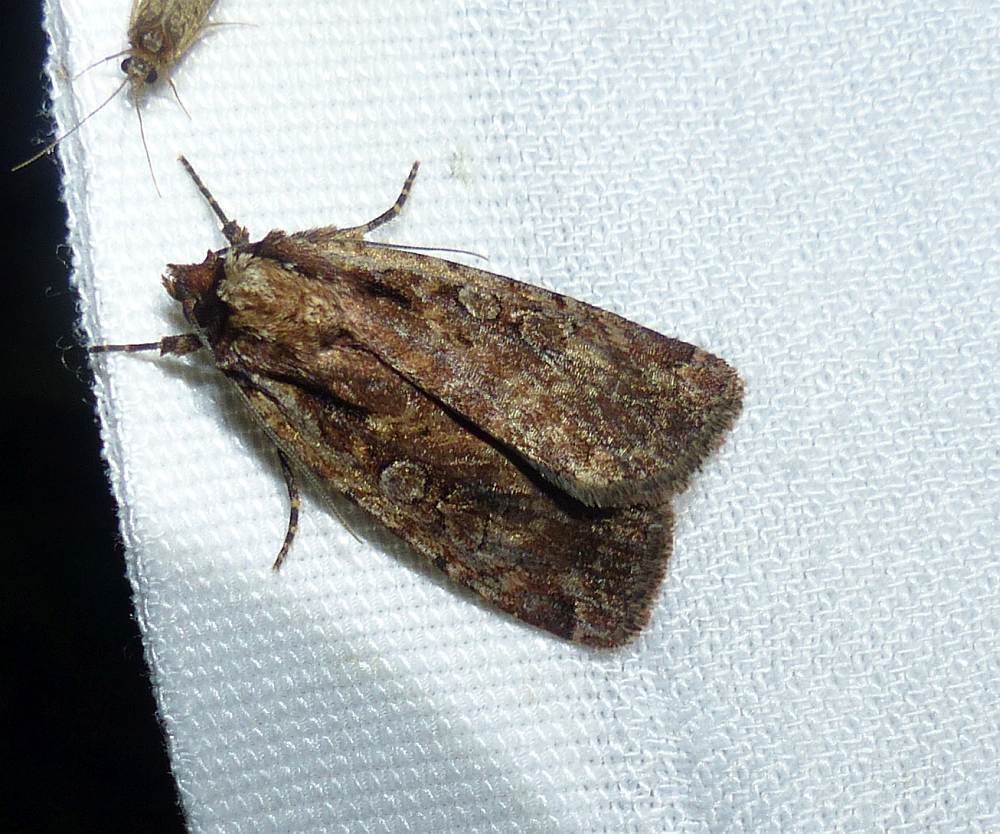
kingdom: Animalia
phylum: Arthropoda
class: Insecta
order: Lepidoptera
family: Noctuidae
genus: Eueretagrotis
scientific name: Eueretagrotis attentus
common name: Attentive dart
